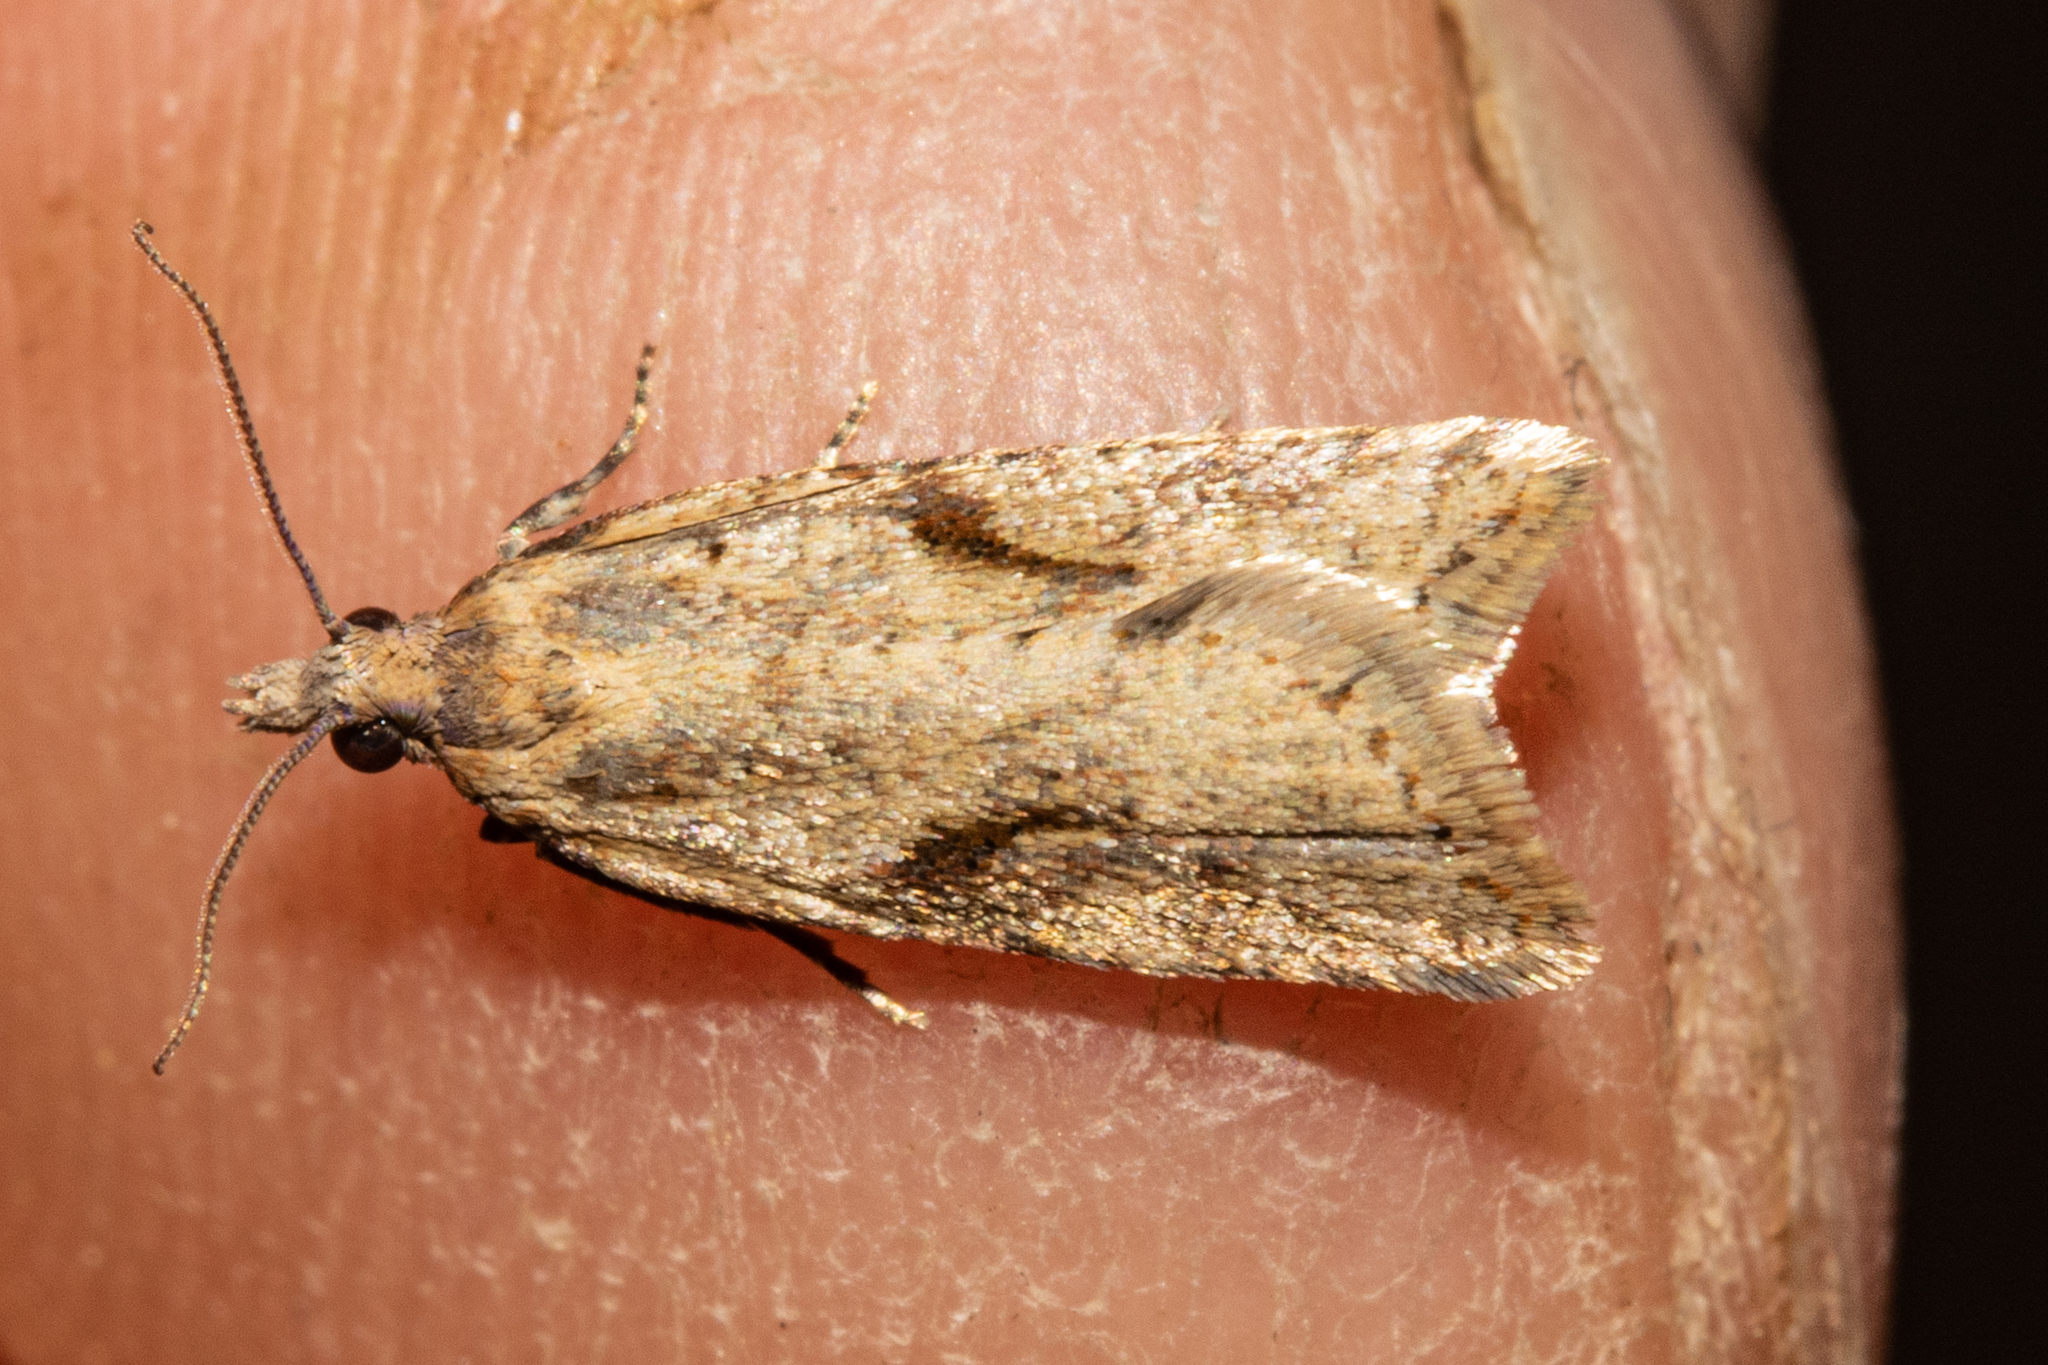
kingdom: Animalia
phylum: Arthropoda
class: Insecta
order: Lepidoptera
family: Tortricidae
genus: Capua
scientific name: Capua semiferana
